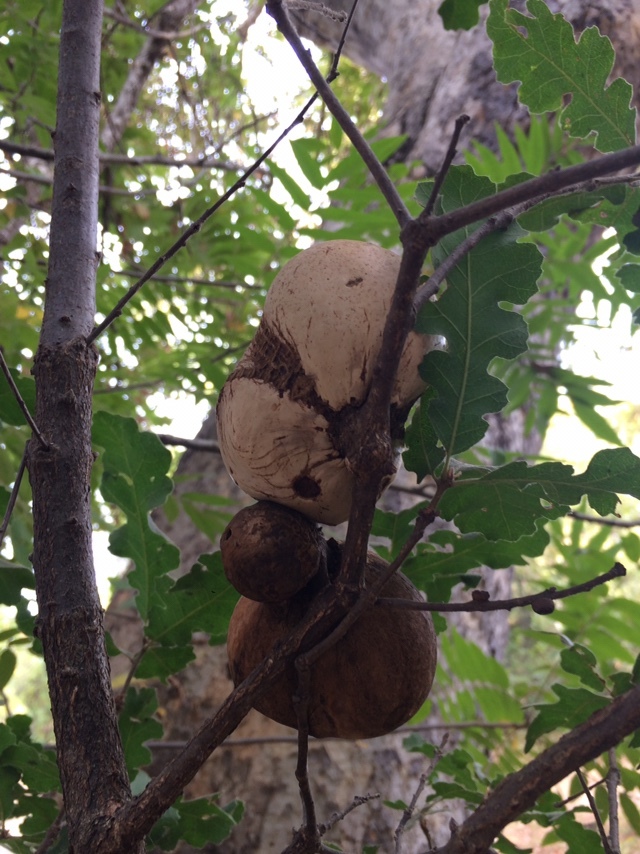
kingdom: Animalia
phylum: Arthropoda
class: Insecta
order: Hymenoptera
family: Cynipidae
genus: Andricus
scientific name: Andricus quercuscalifornicus
